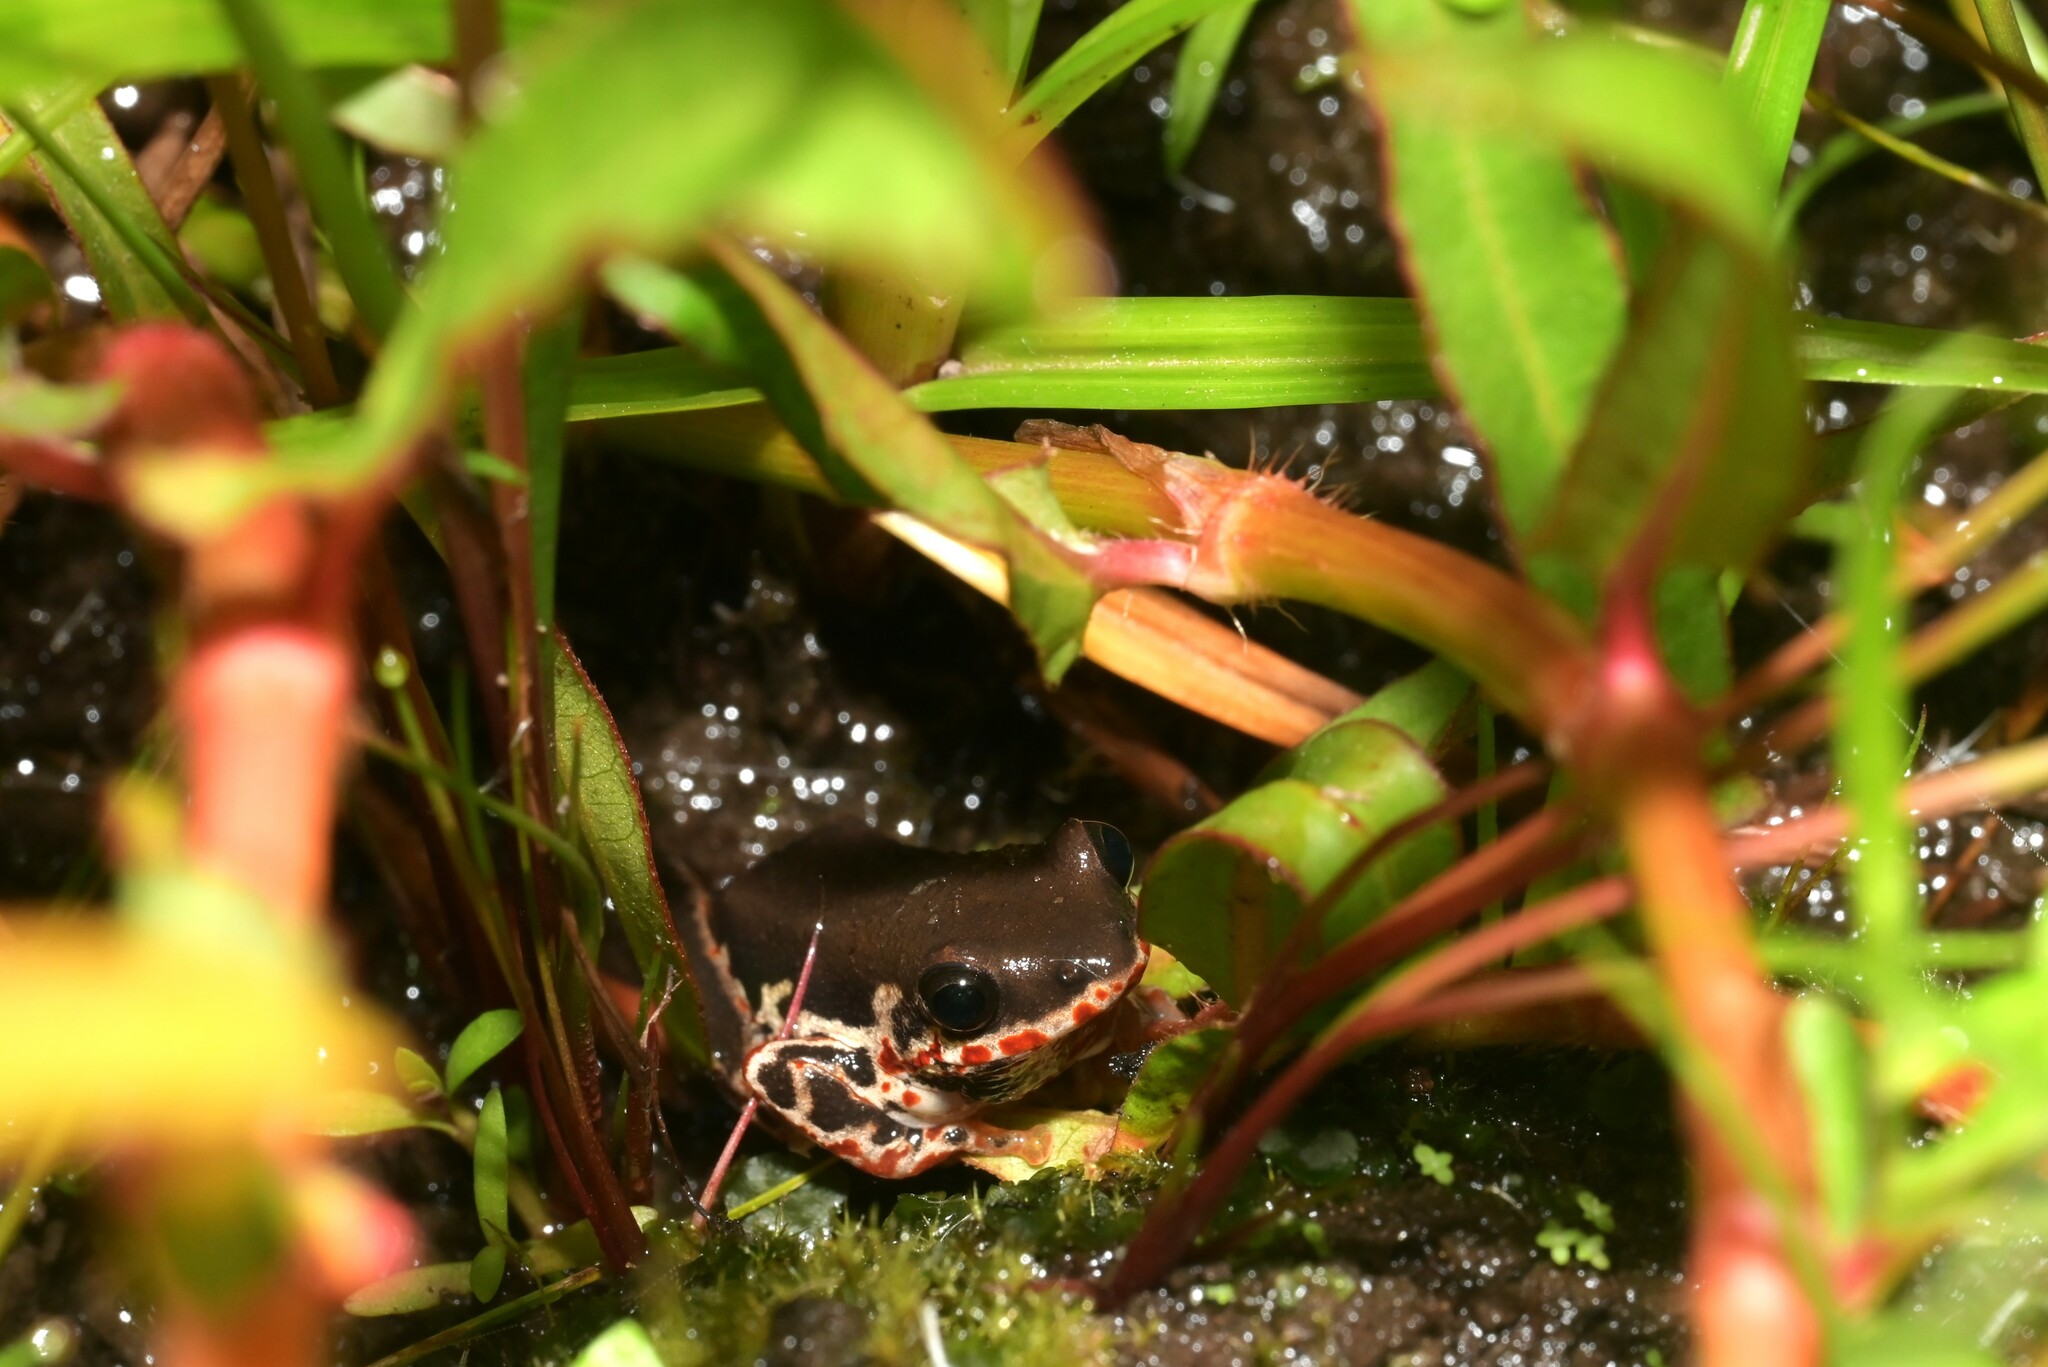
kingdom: Animalia
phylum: Chordata
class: Amphibia
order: Anura
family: Hyperoliidae
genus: Hyperolius
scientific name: Hyperolius marginatus
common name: Silver-striped sedgefrog
